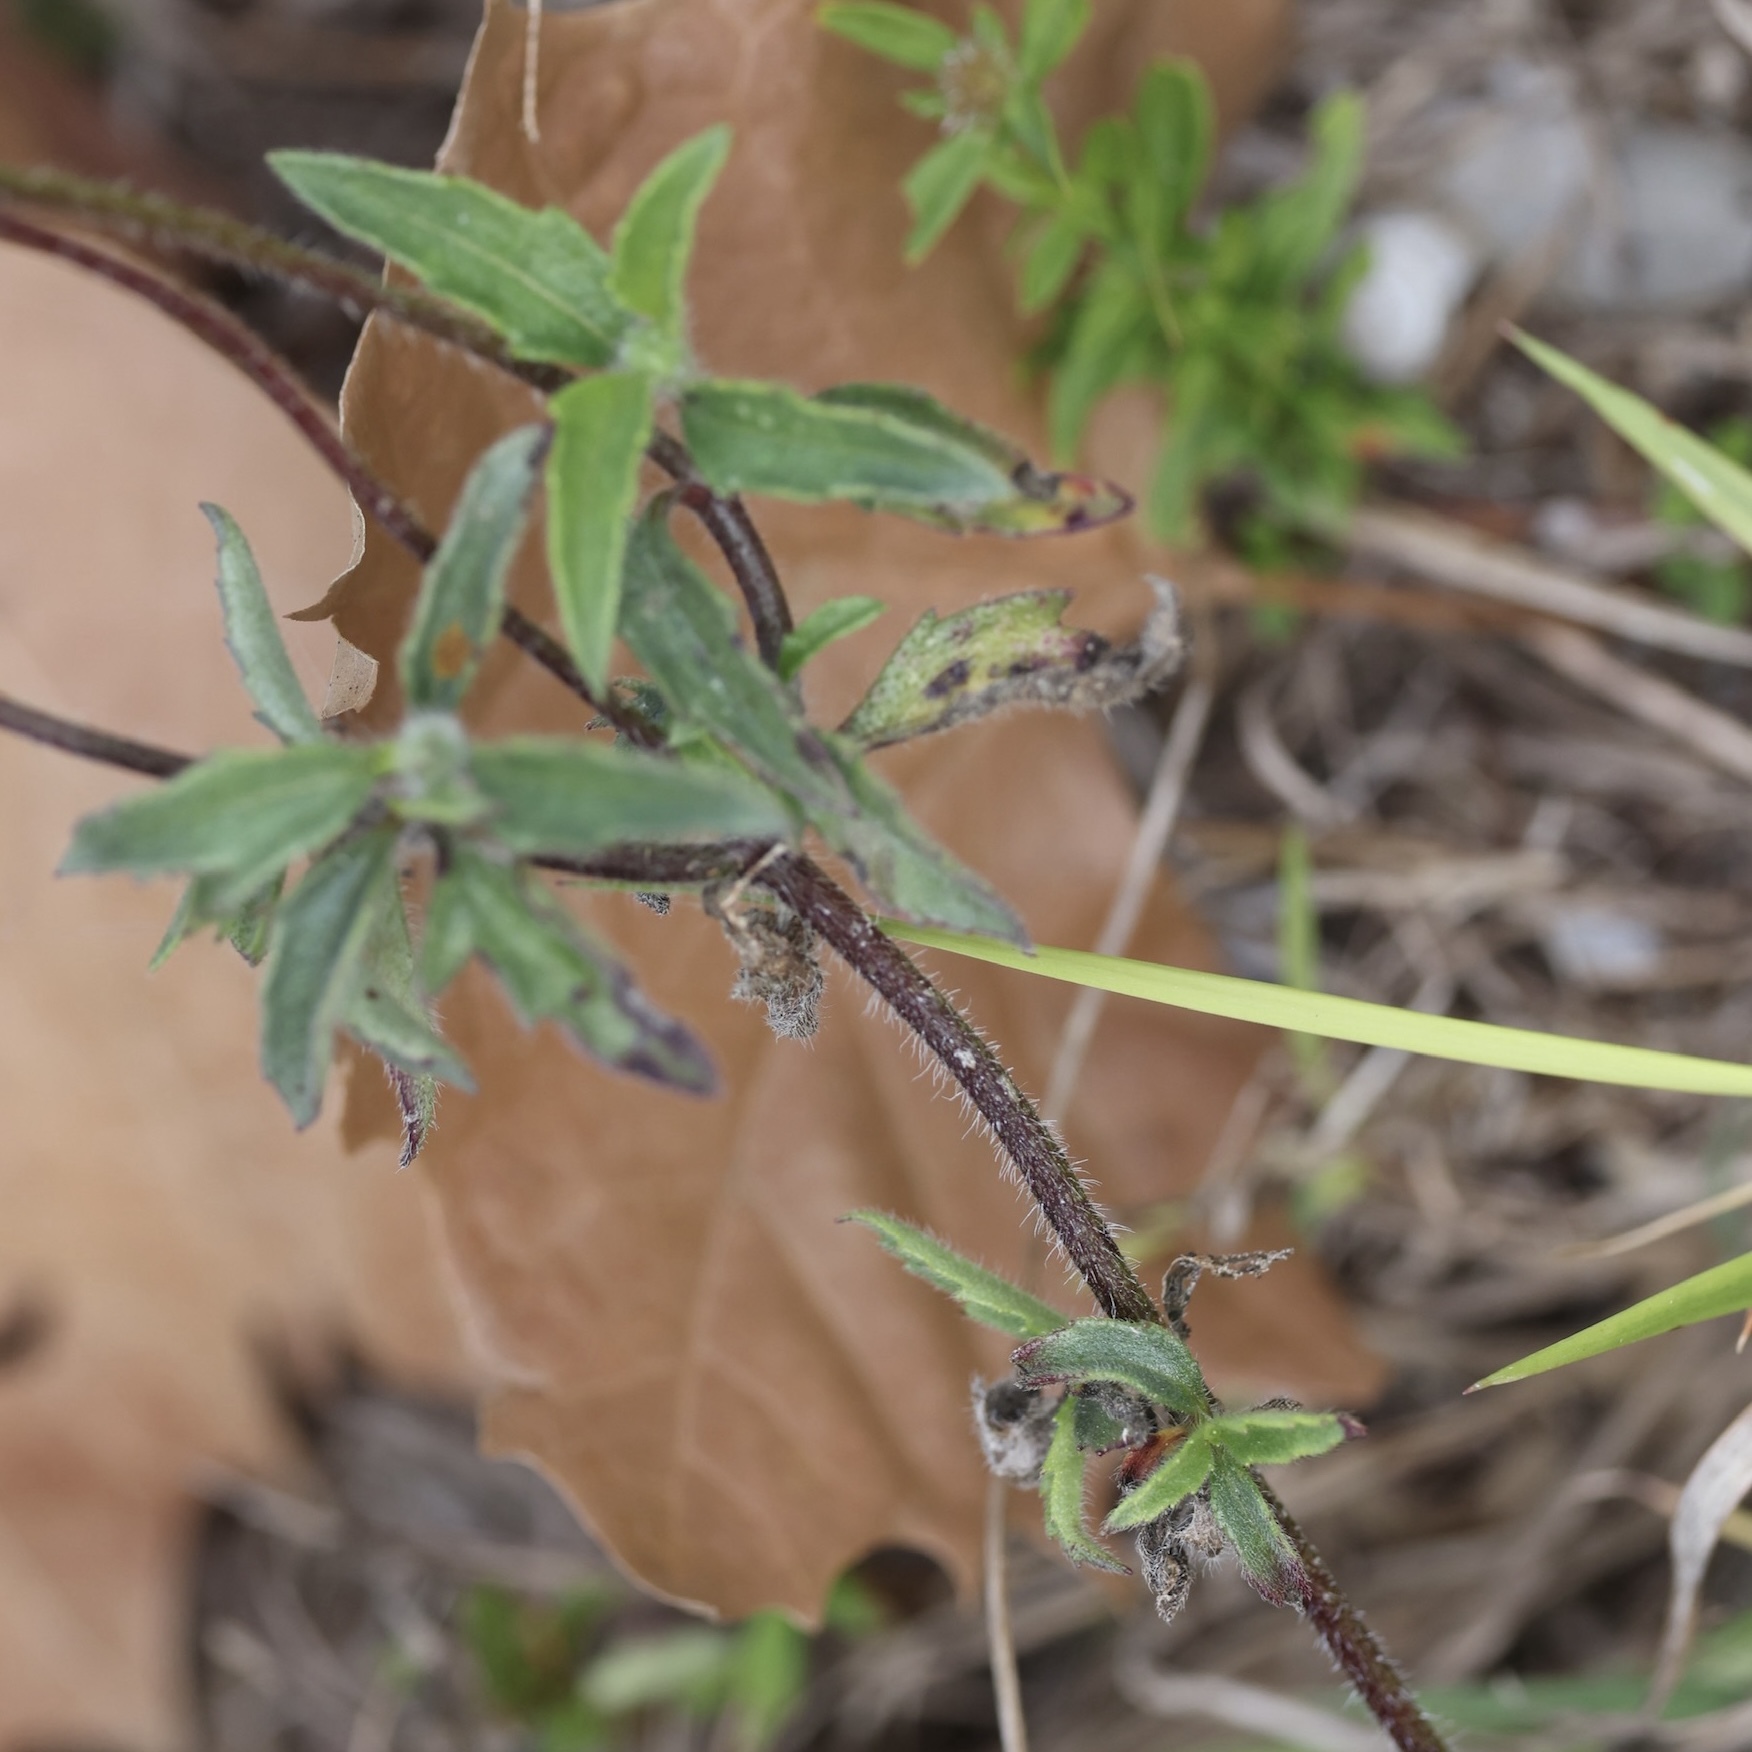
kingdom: Plantae
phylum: Tracheophyta
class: Magnoliopsida
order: Asterales
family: Asteraceae
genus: Tridax
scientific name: Tridax procumbens
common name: Coatbuttons
